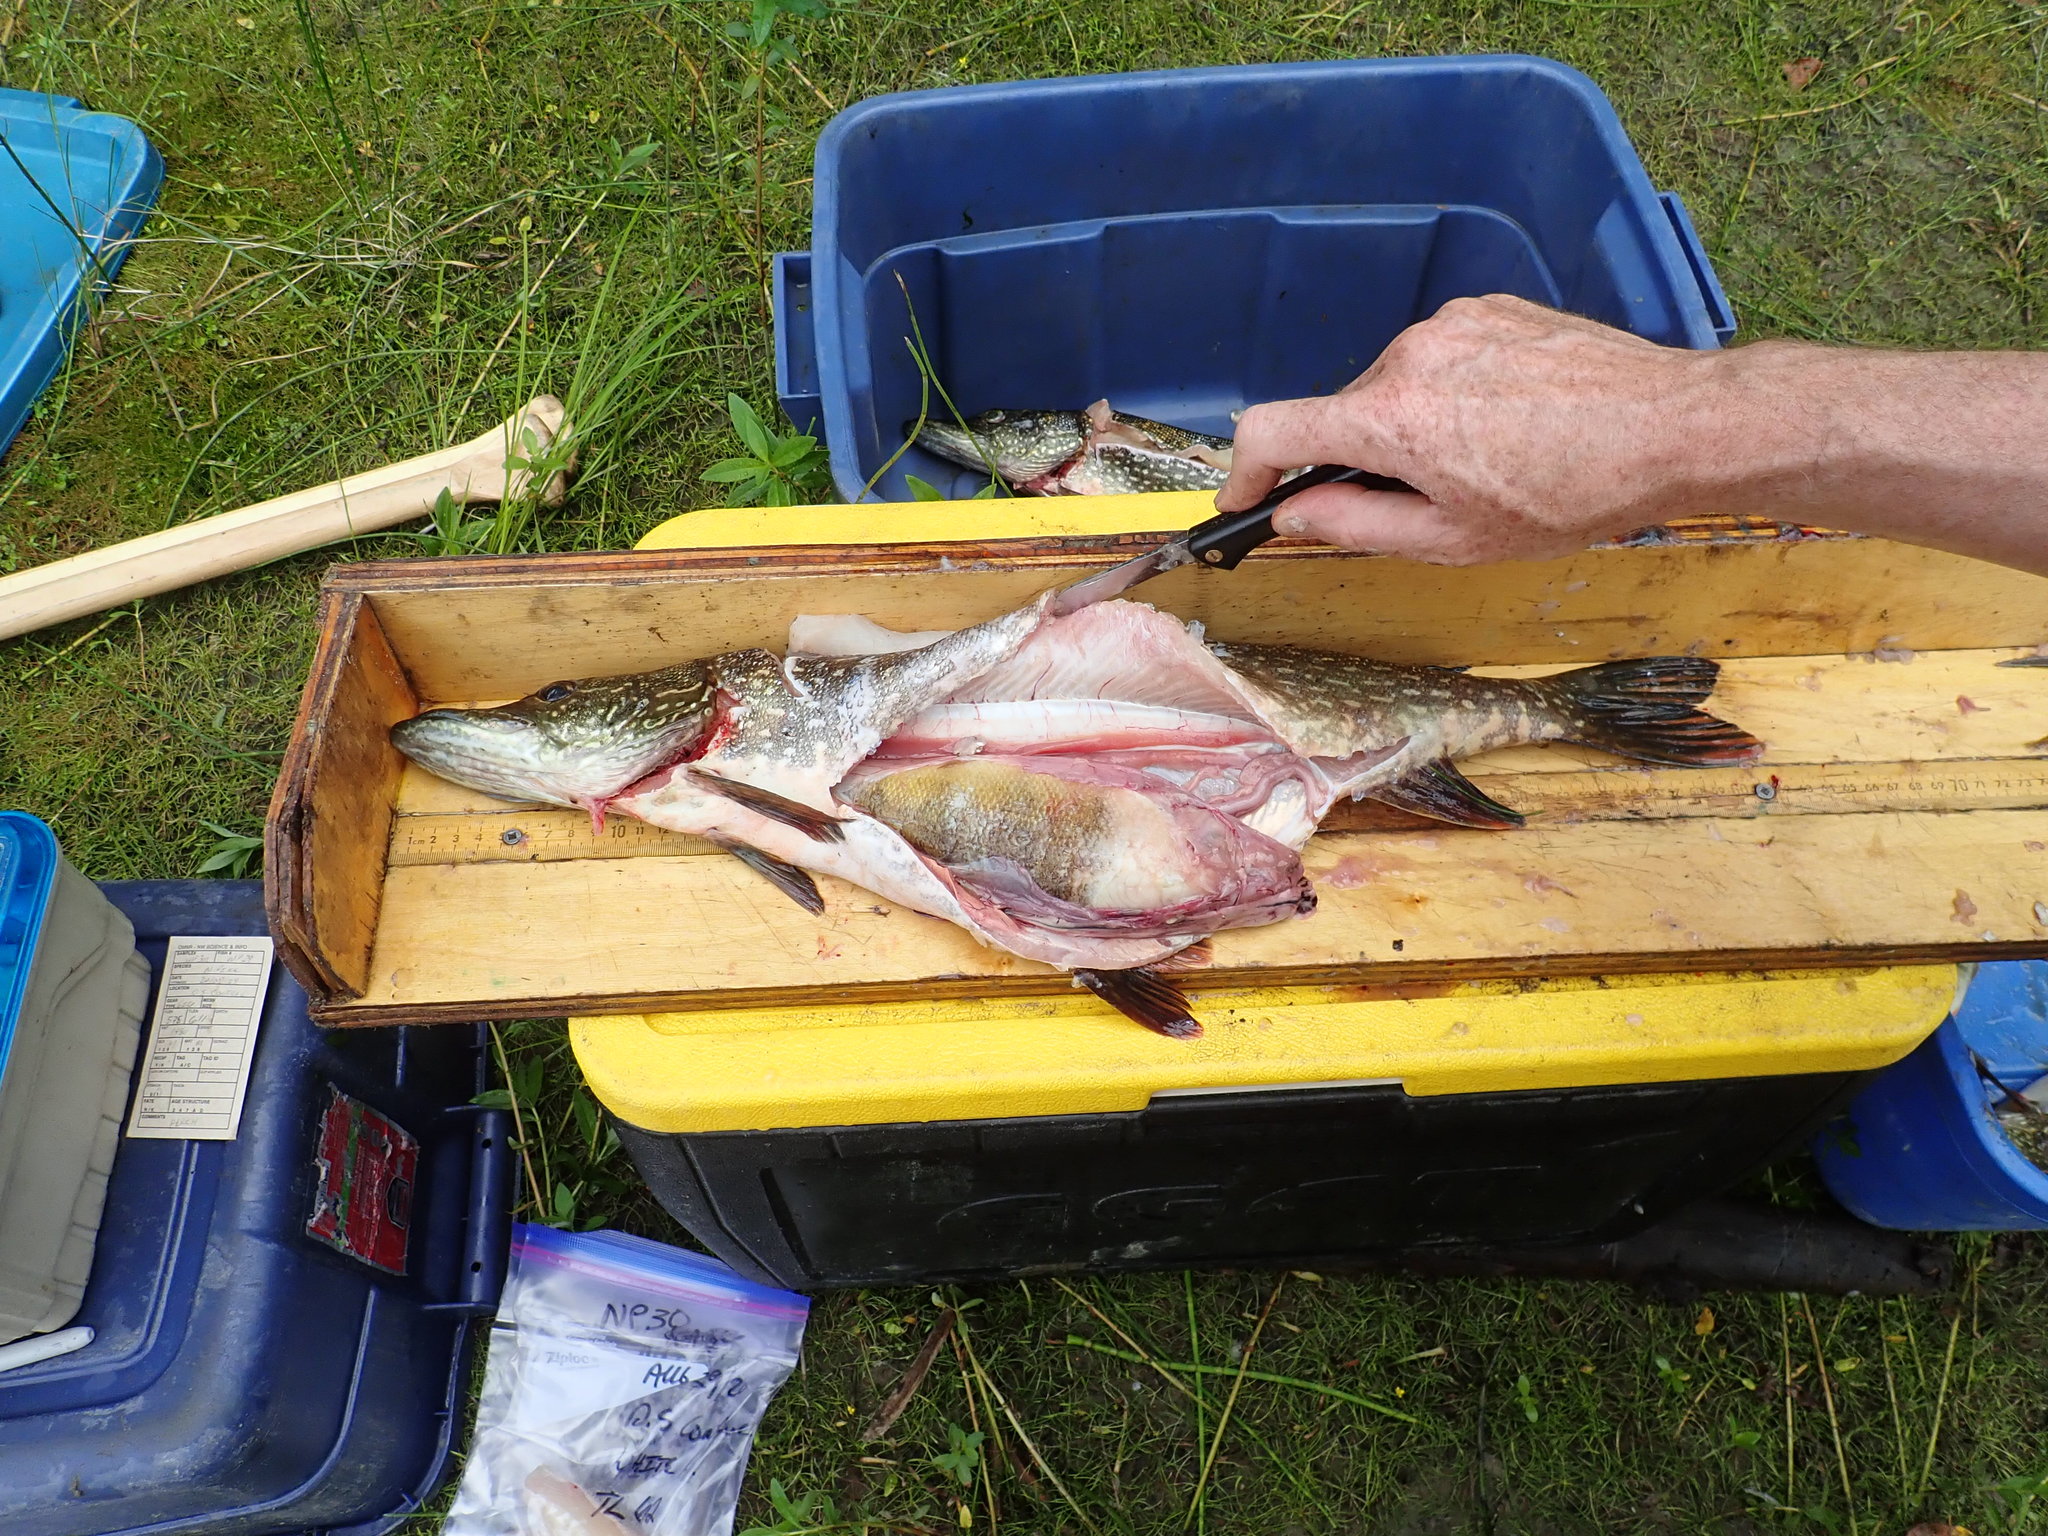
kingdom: Animalia
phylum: Chordata
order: Esociformes
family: Esocidae
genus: Esox
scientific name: Esox lucius
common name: Northern pike
